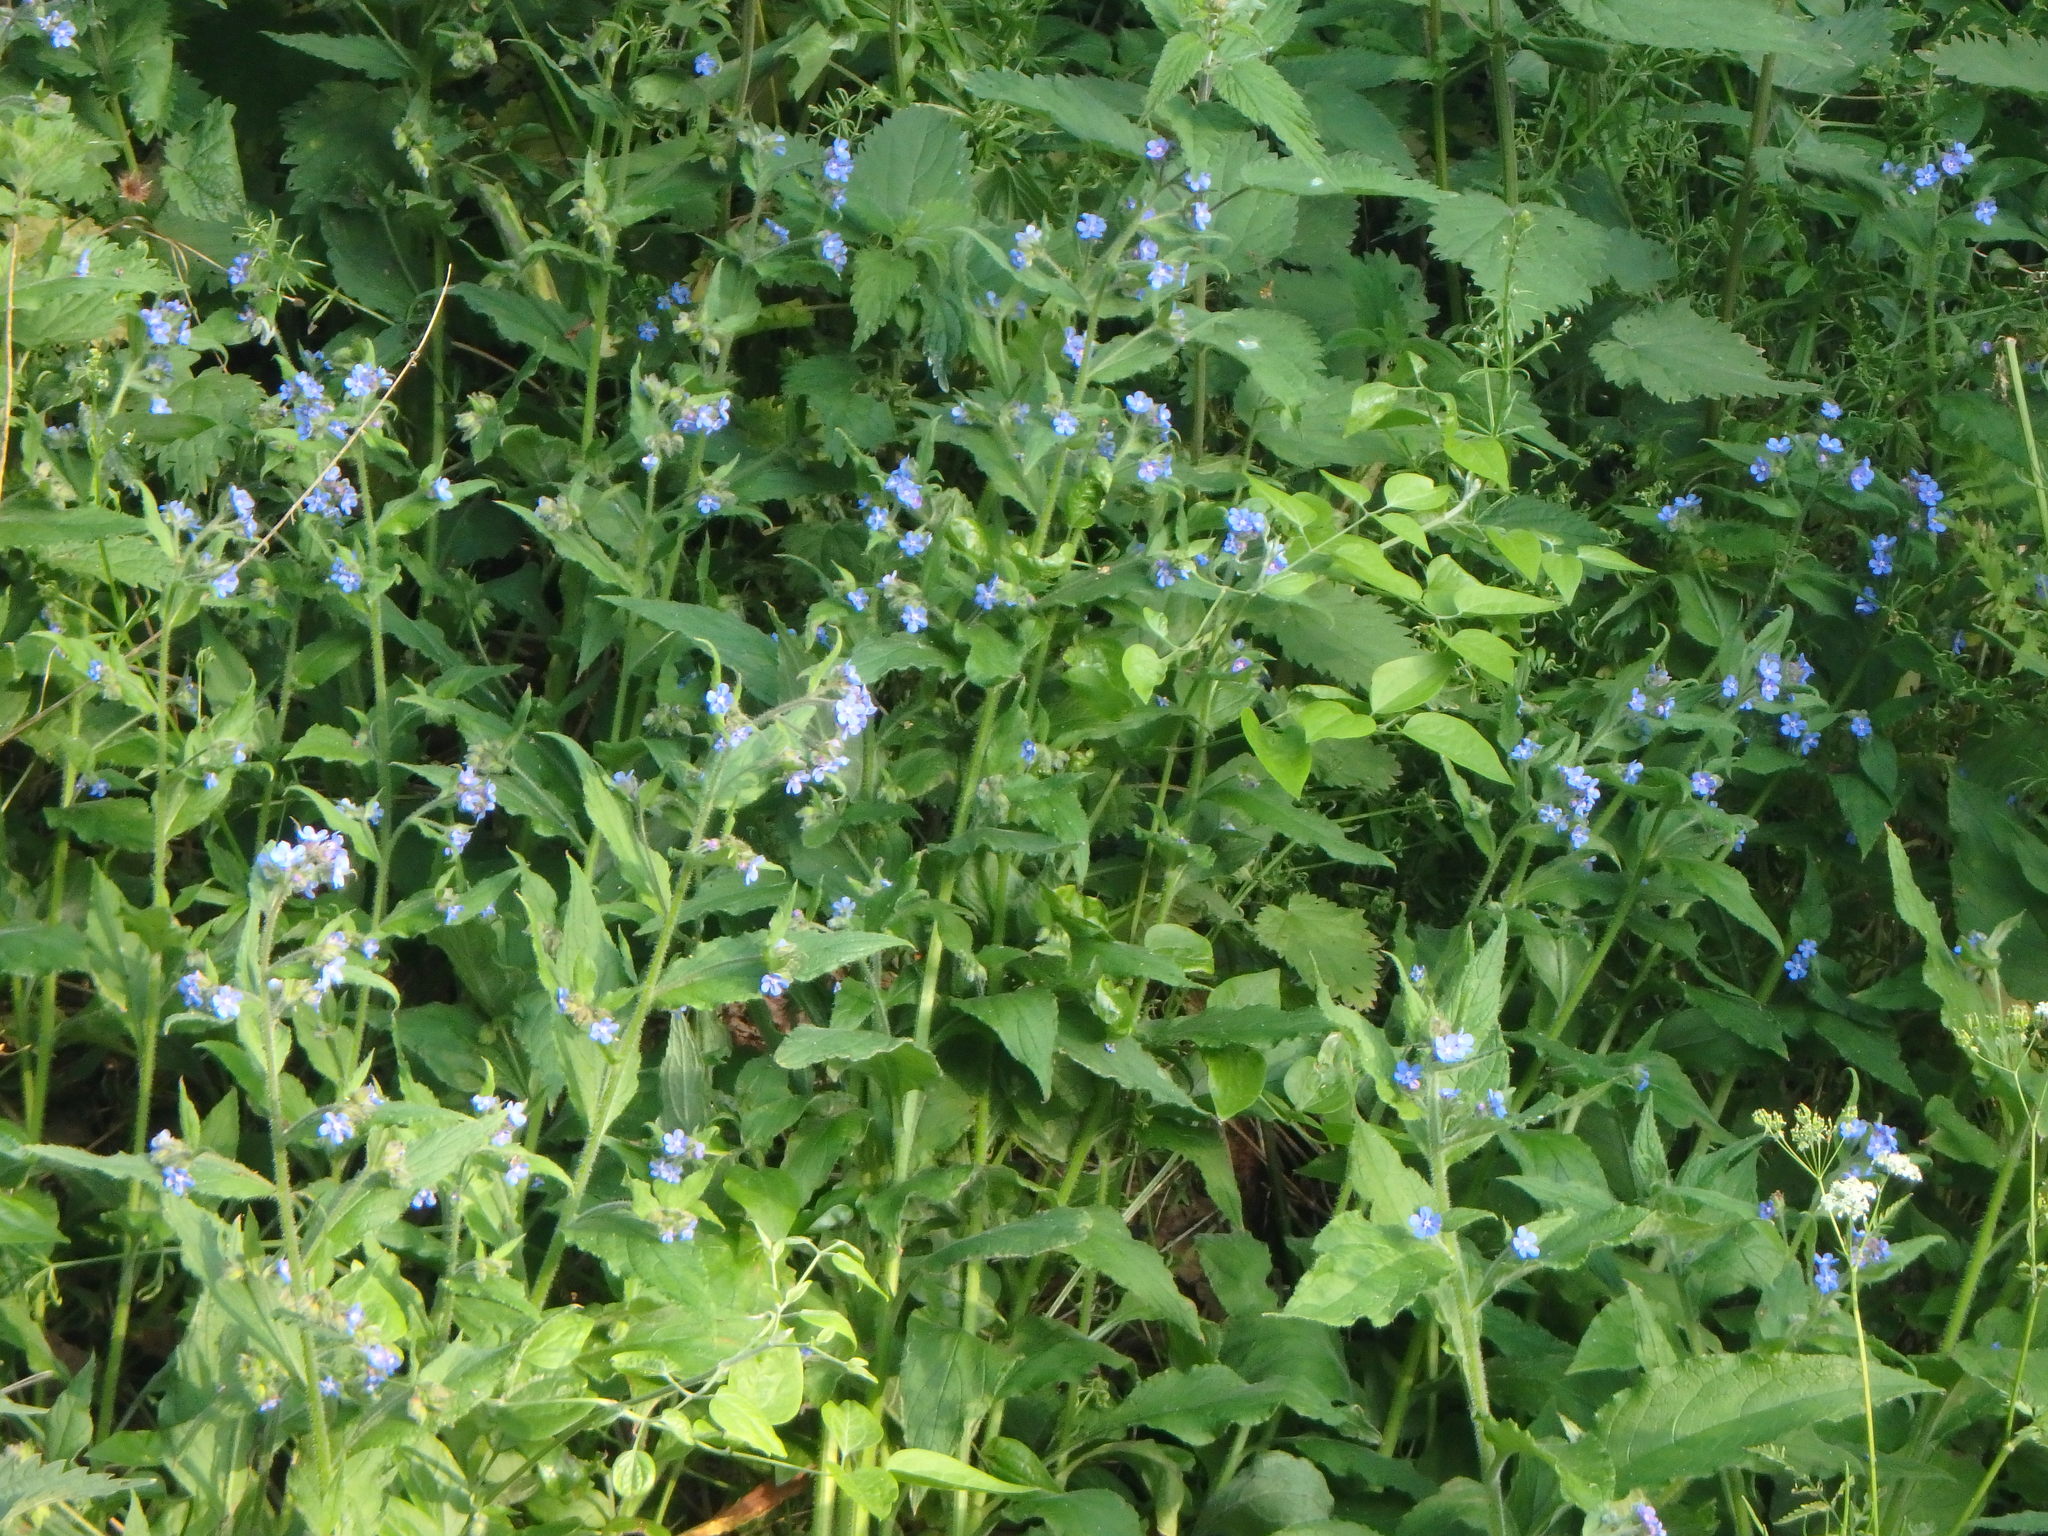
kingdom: Plantae
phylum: Tracheophyta
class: Magnoliopsida
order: Boraginales
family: Boraginaceae
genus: Pentaglottis
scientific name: Pentaglottis sempervirens
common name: Green alkanet
